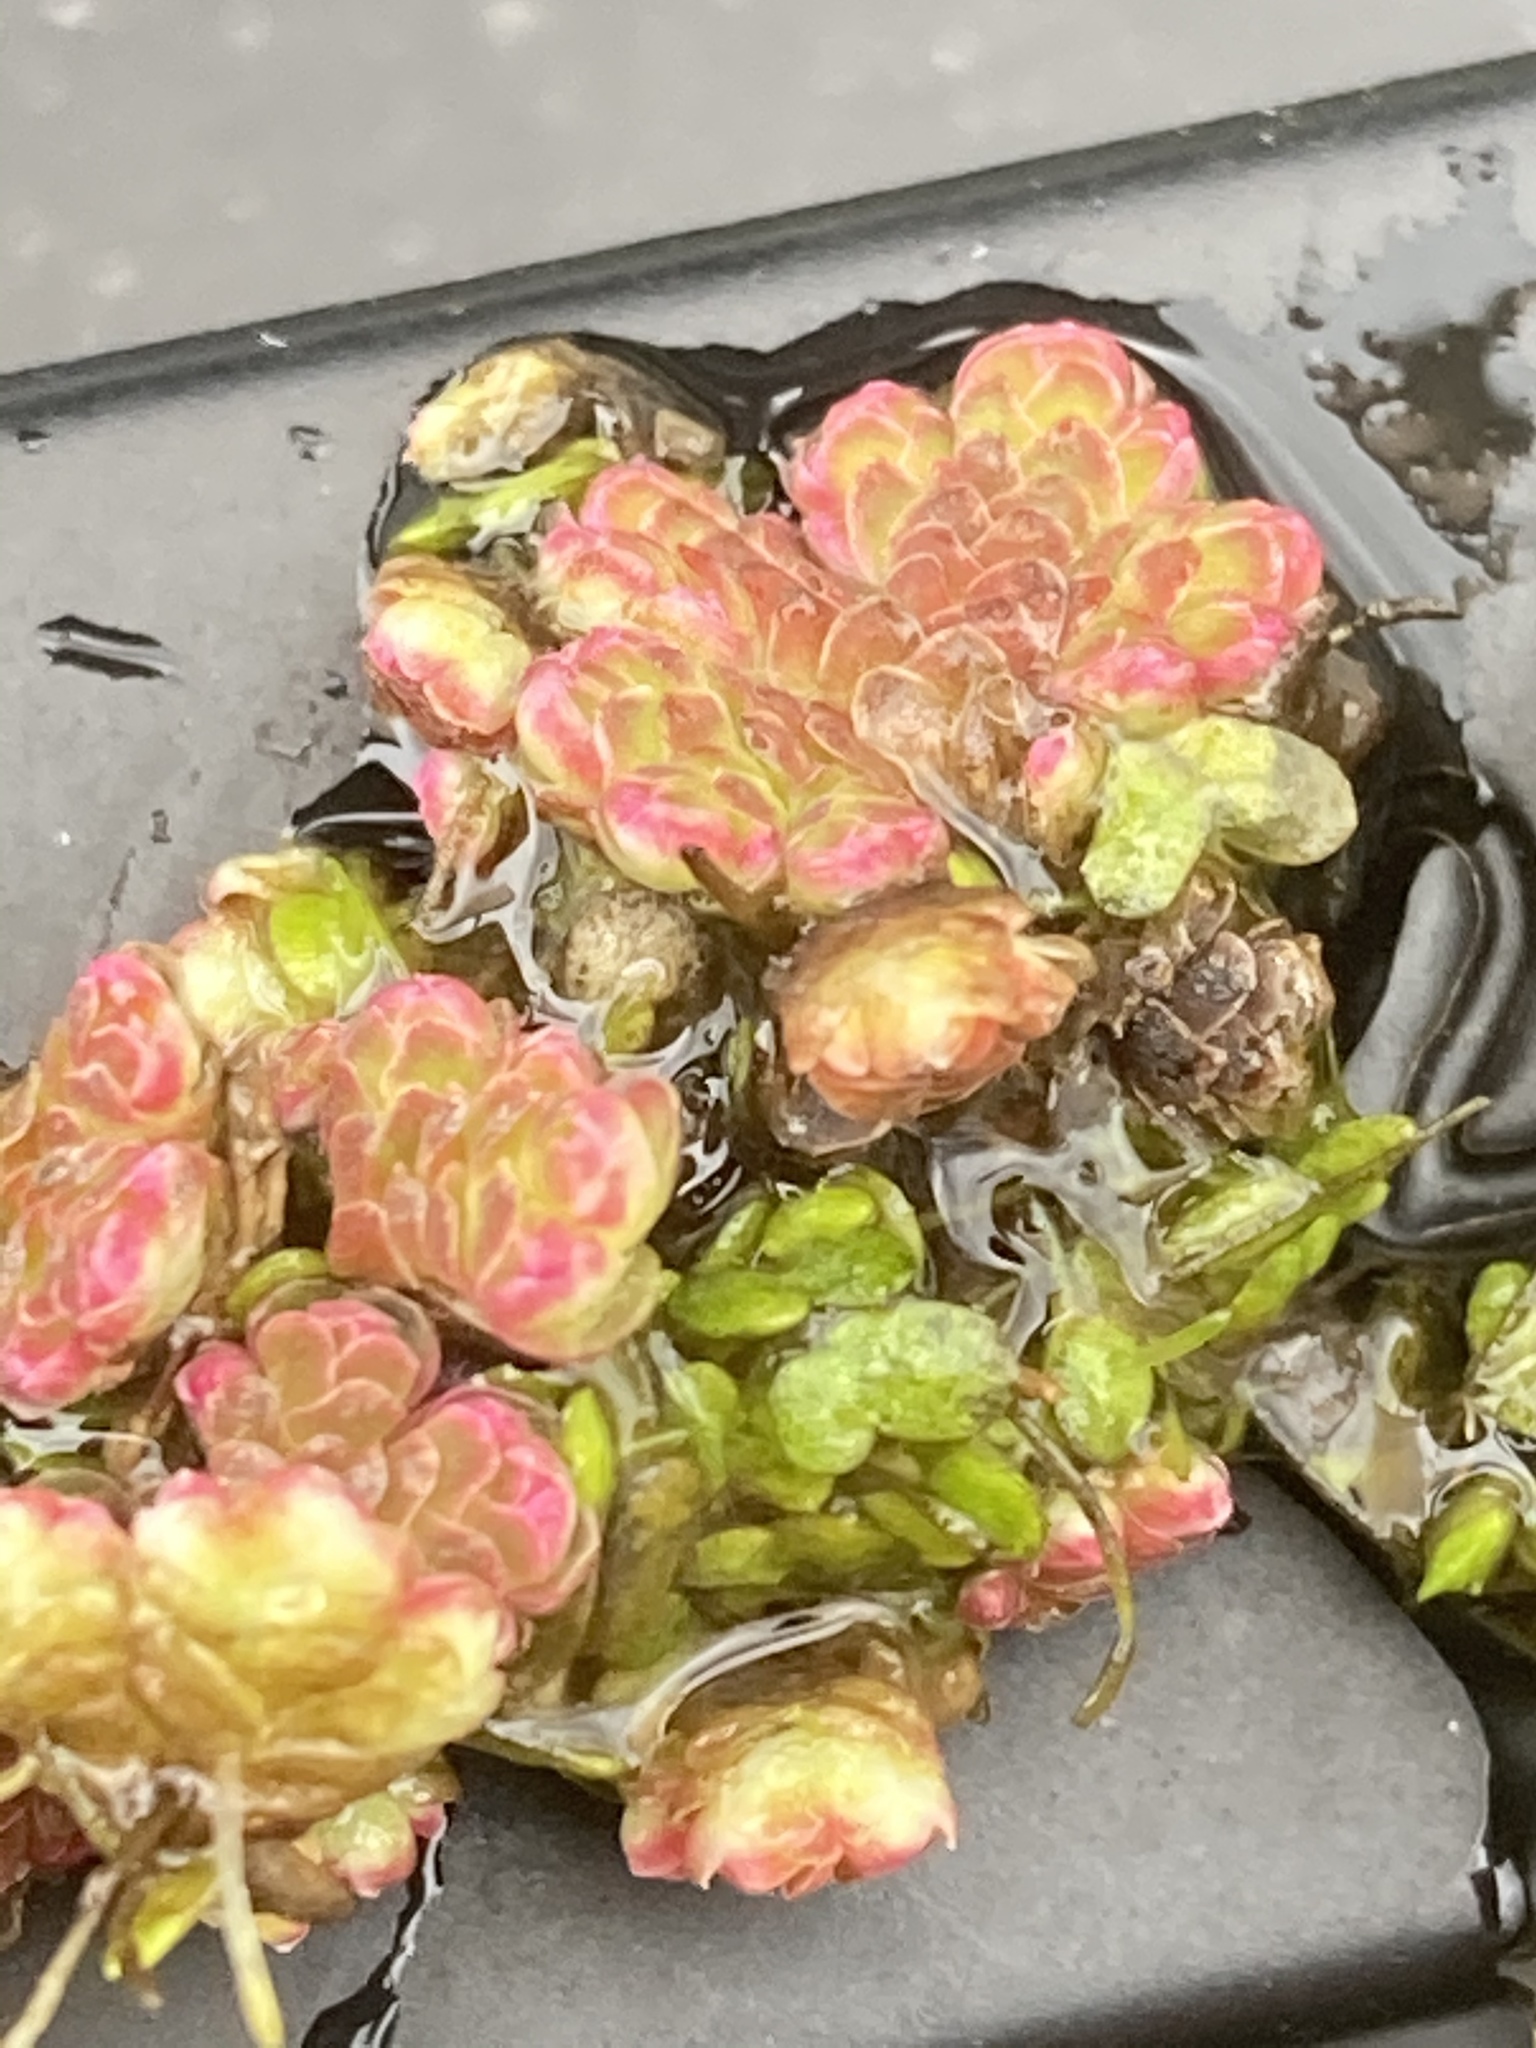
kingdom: Plantae
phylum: Tracheophyta
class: Polypodiopsida
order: Salviniales
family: Salviniaceae
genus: Azolla
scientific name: Azolla filiculoides
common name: Water fern
